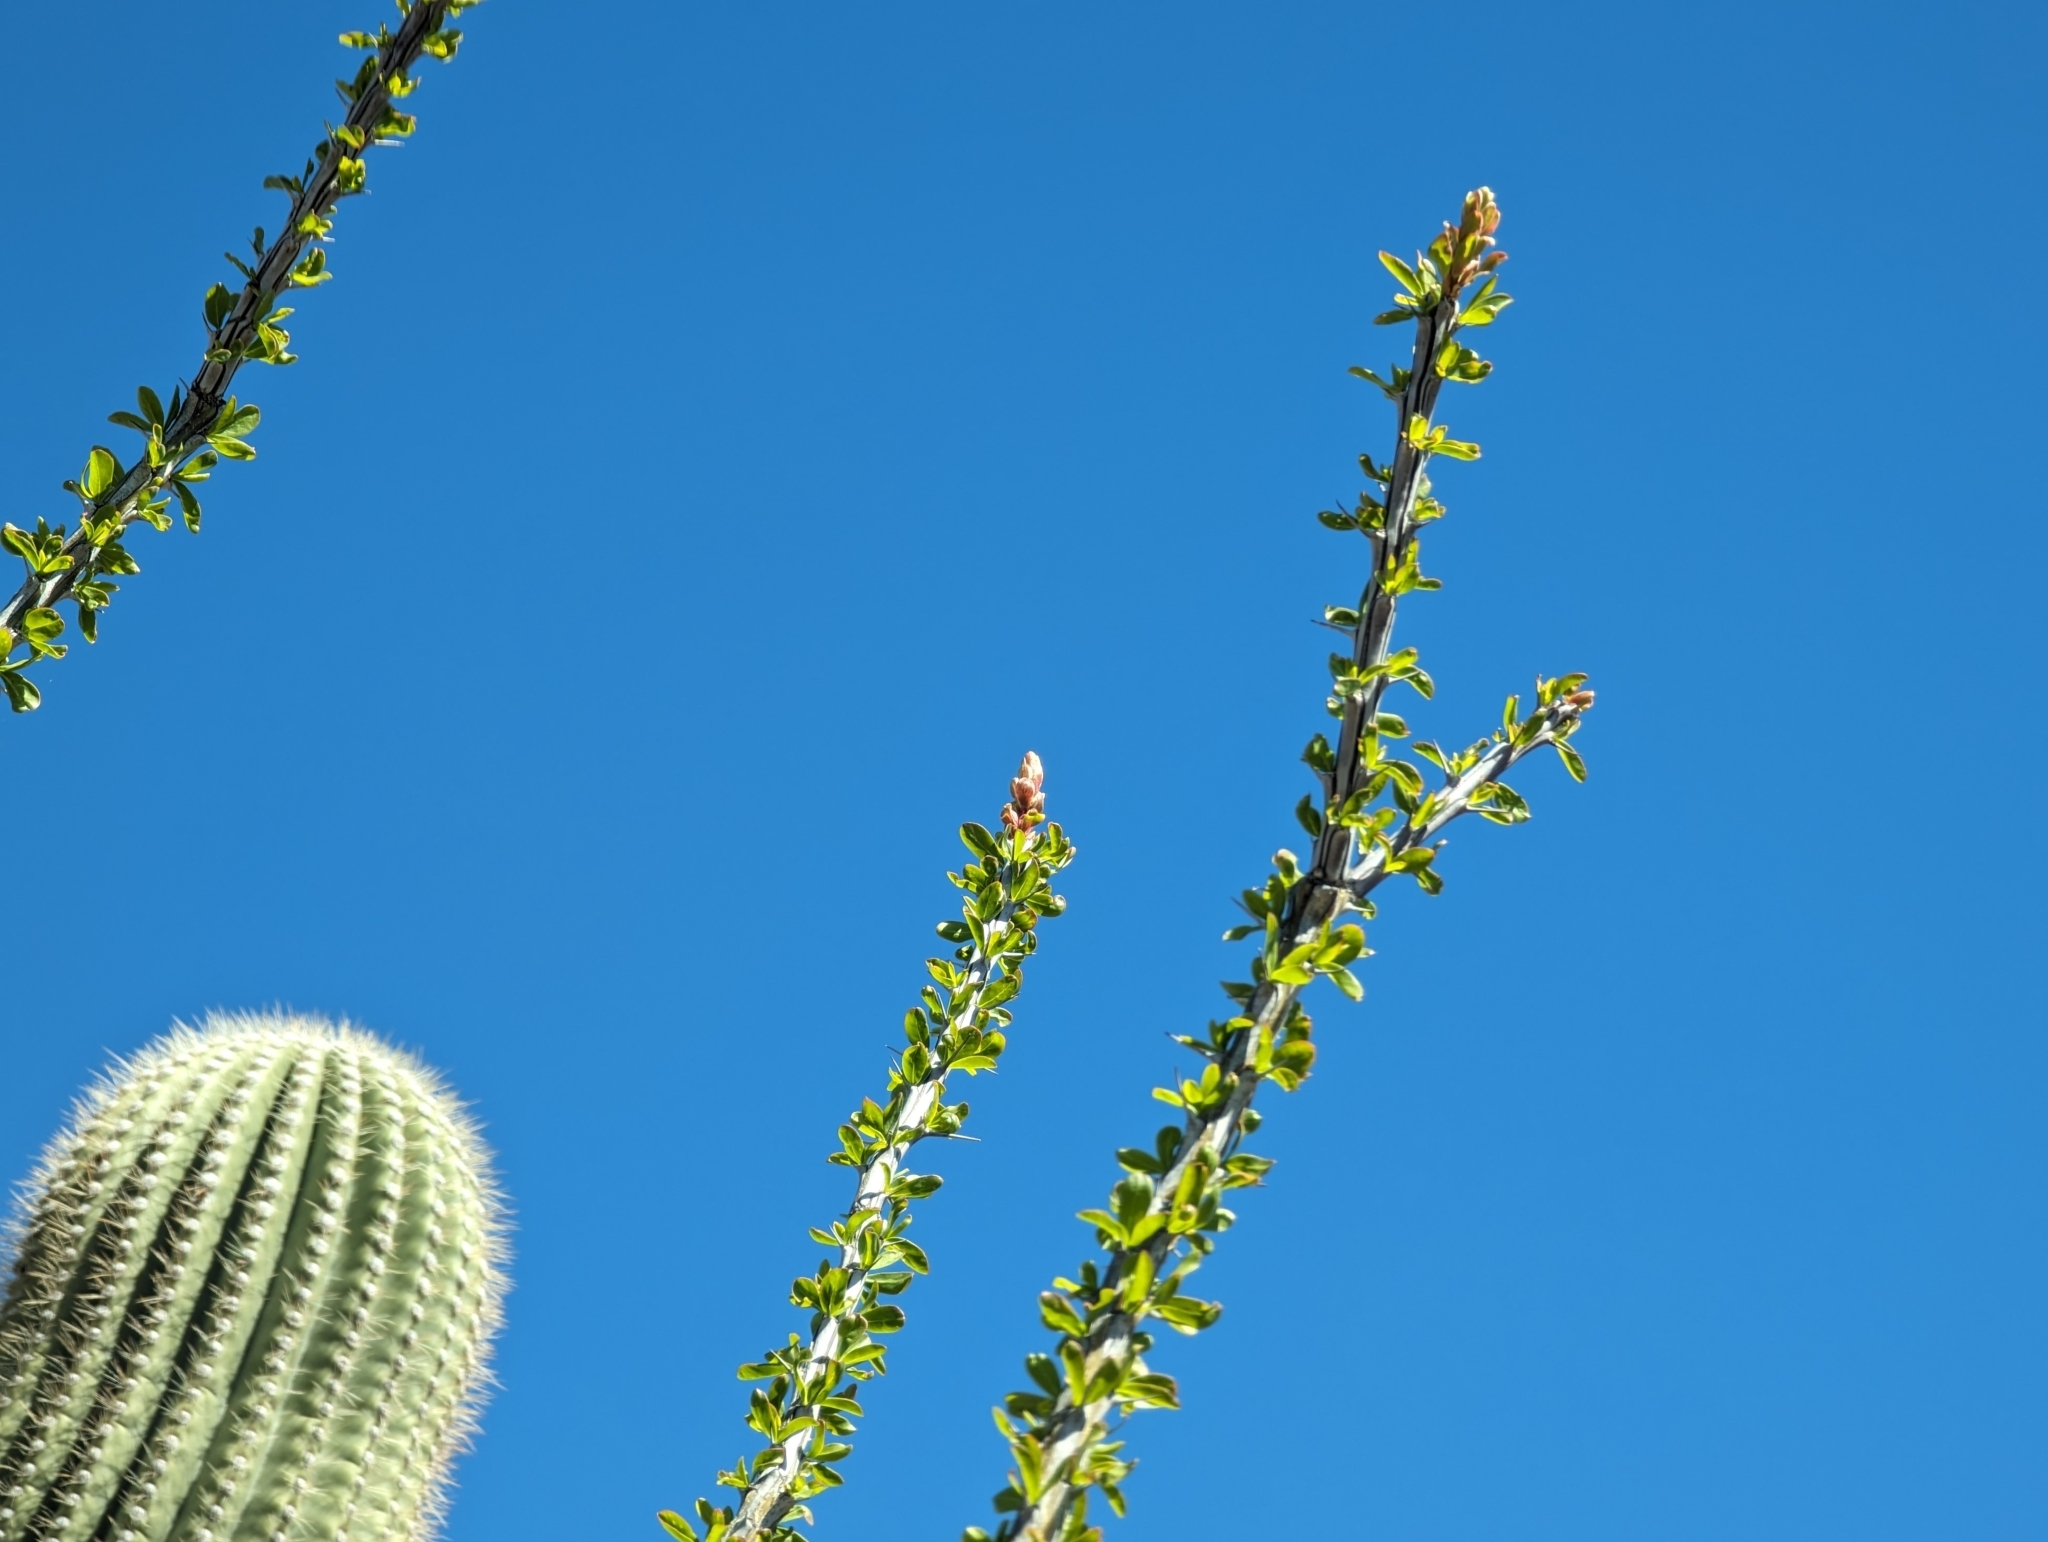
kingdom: Plantae
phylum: Tracheophyta
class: Magnoliopsida
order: Ericales
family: Fouquieriaceae
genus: Fouquieria
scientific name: Fouquieria splendens
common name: Vine-cactus
